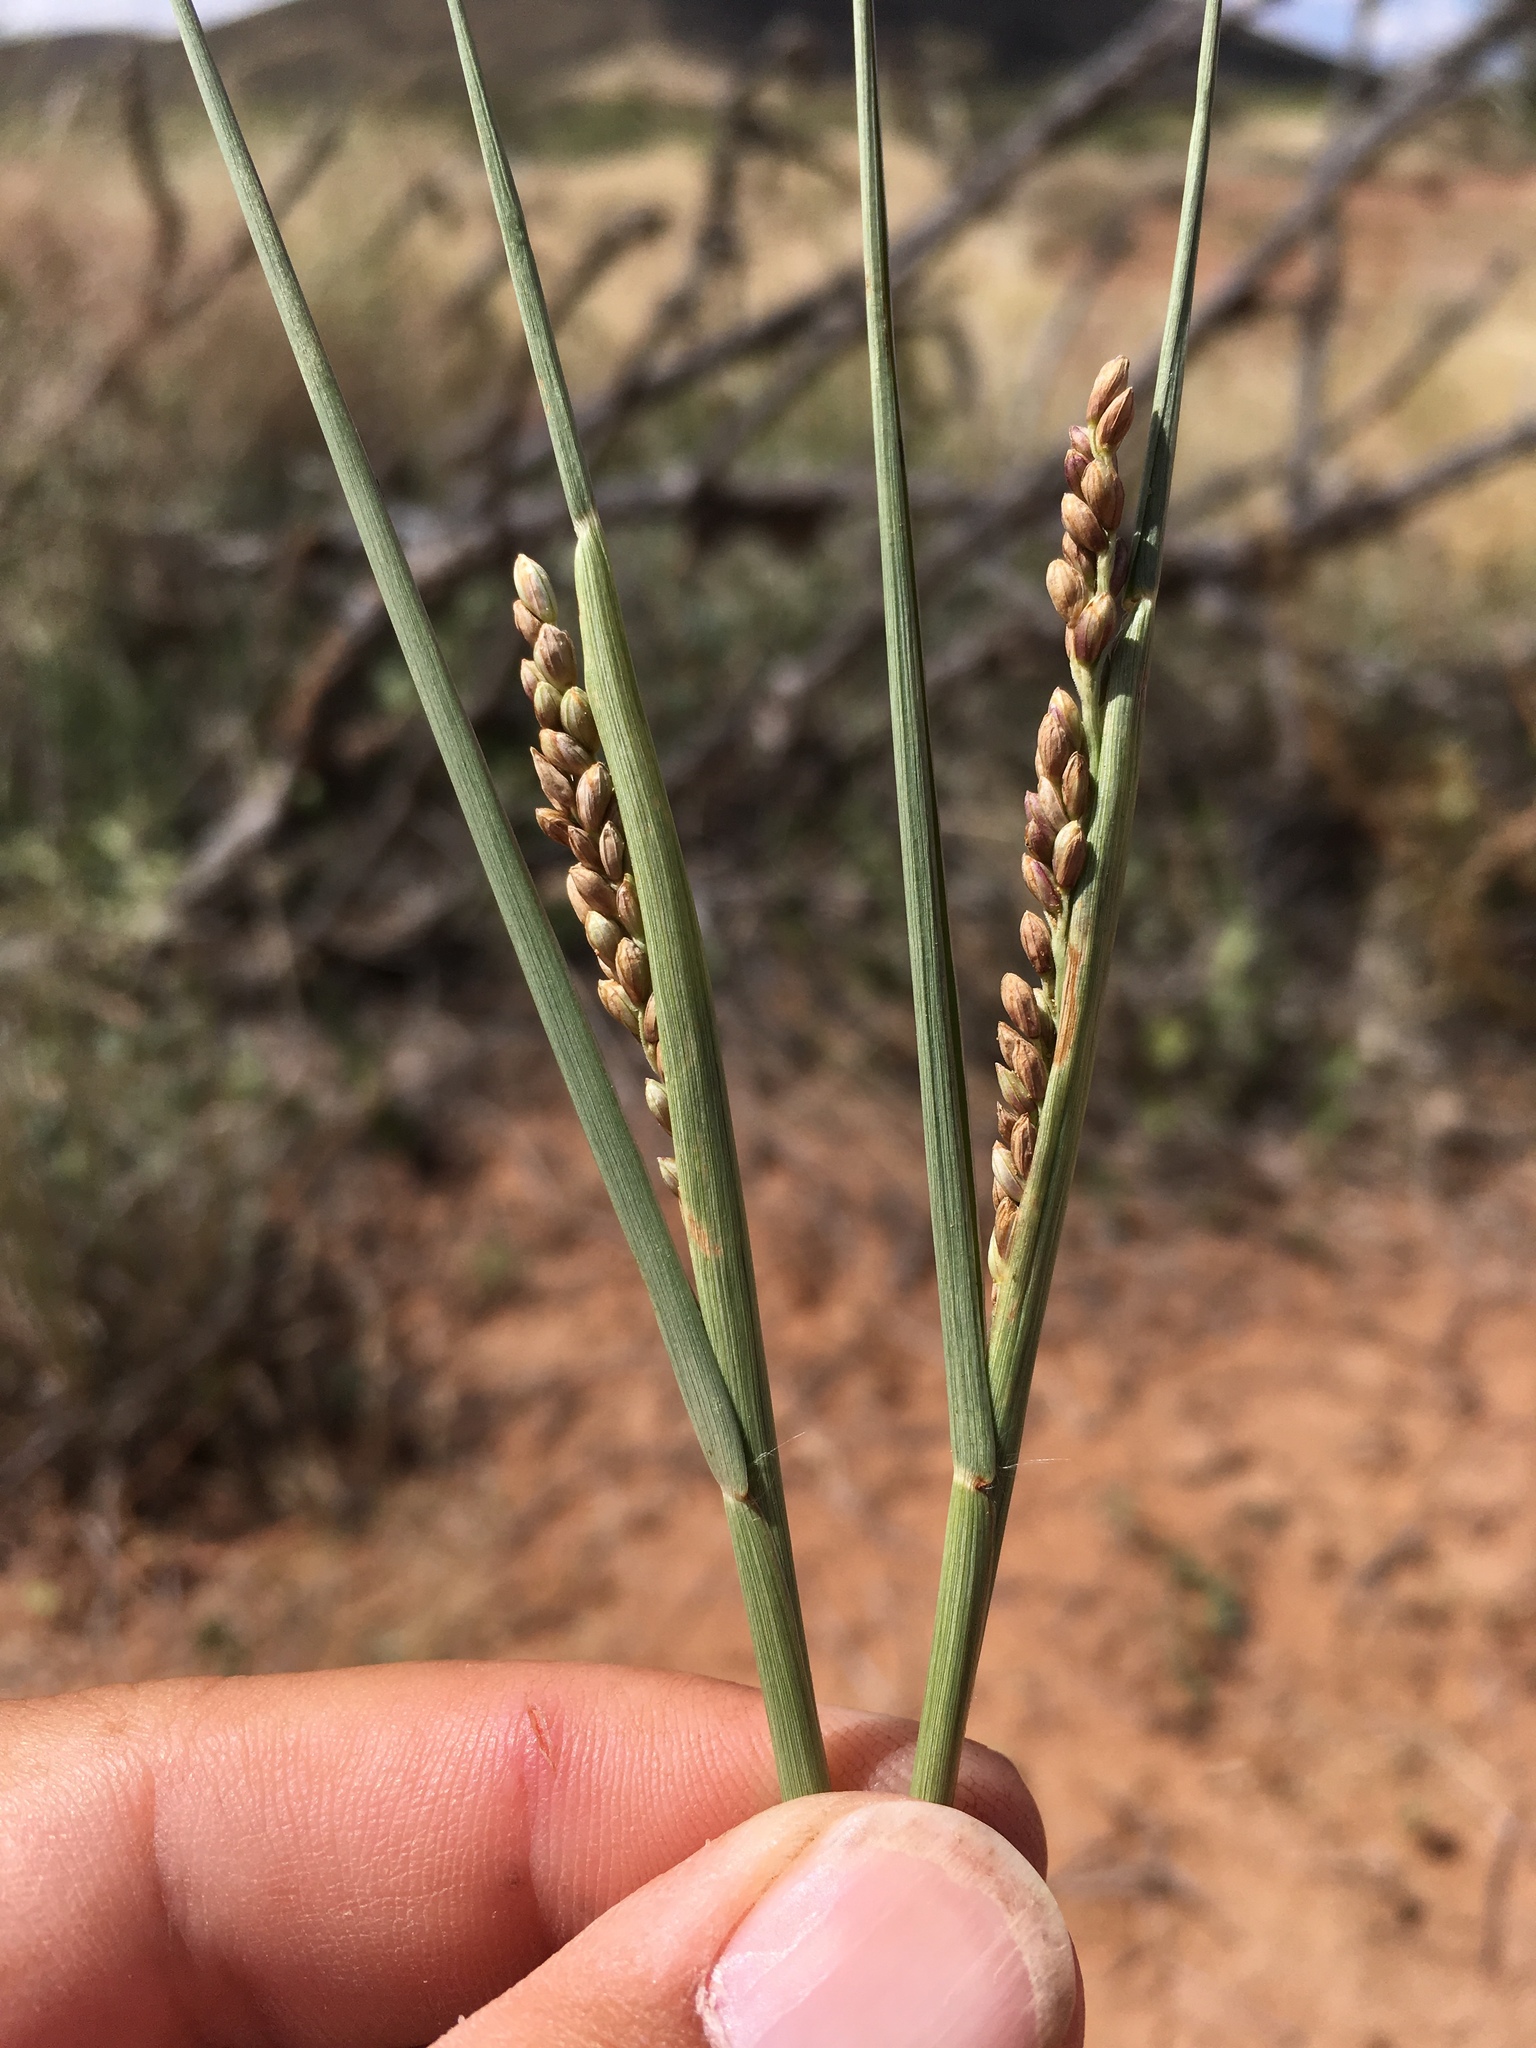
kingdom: Plantae
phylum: Tracheophyta
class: Liliopsida
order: Poales
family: Poaceae
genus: Hopia
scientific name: Hopia obtusa
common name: Vine-mesquite
